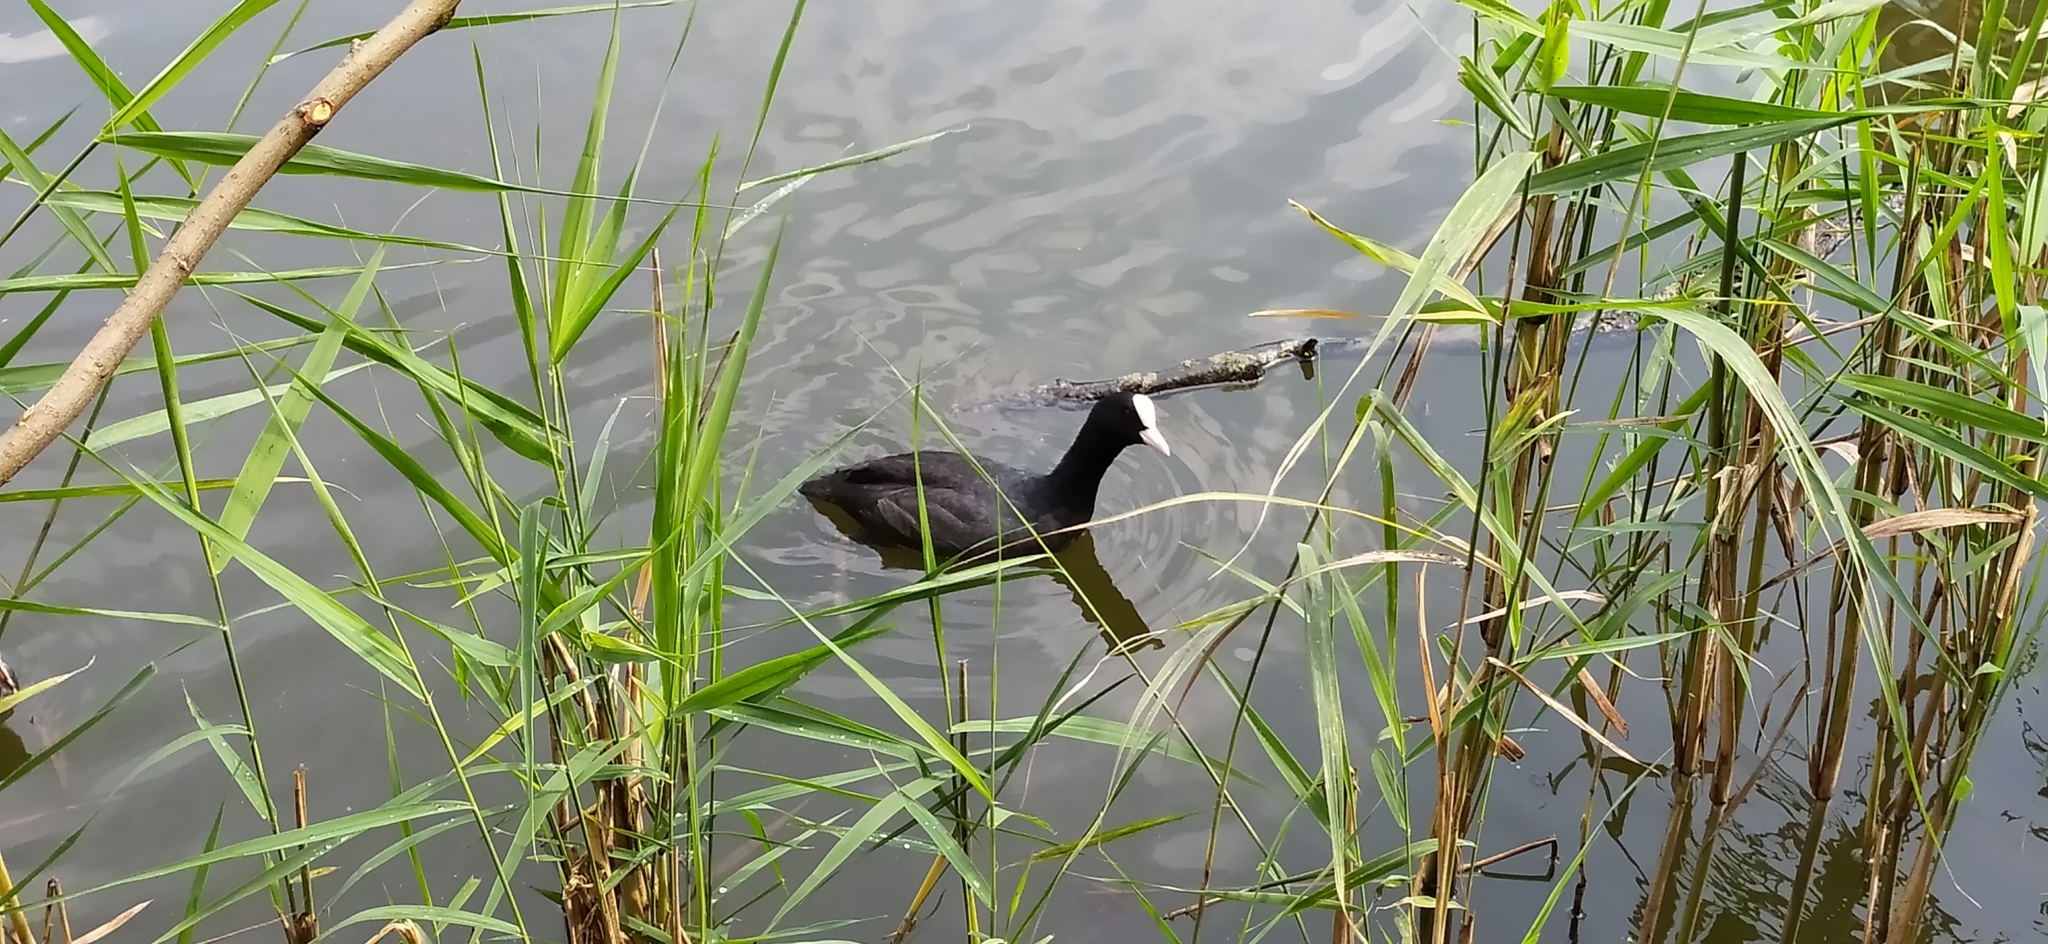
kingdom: Animalia
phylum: Chordata
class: Aves
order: Gruiformes
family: Rallidae
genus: Fulica
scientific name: Fulica atra
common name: Eurasian coot
